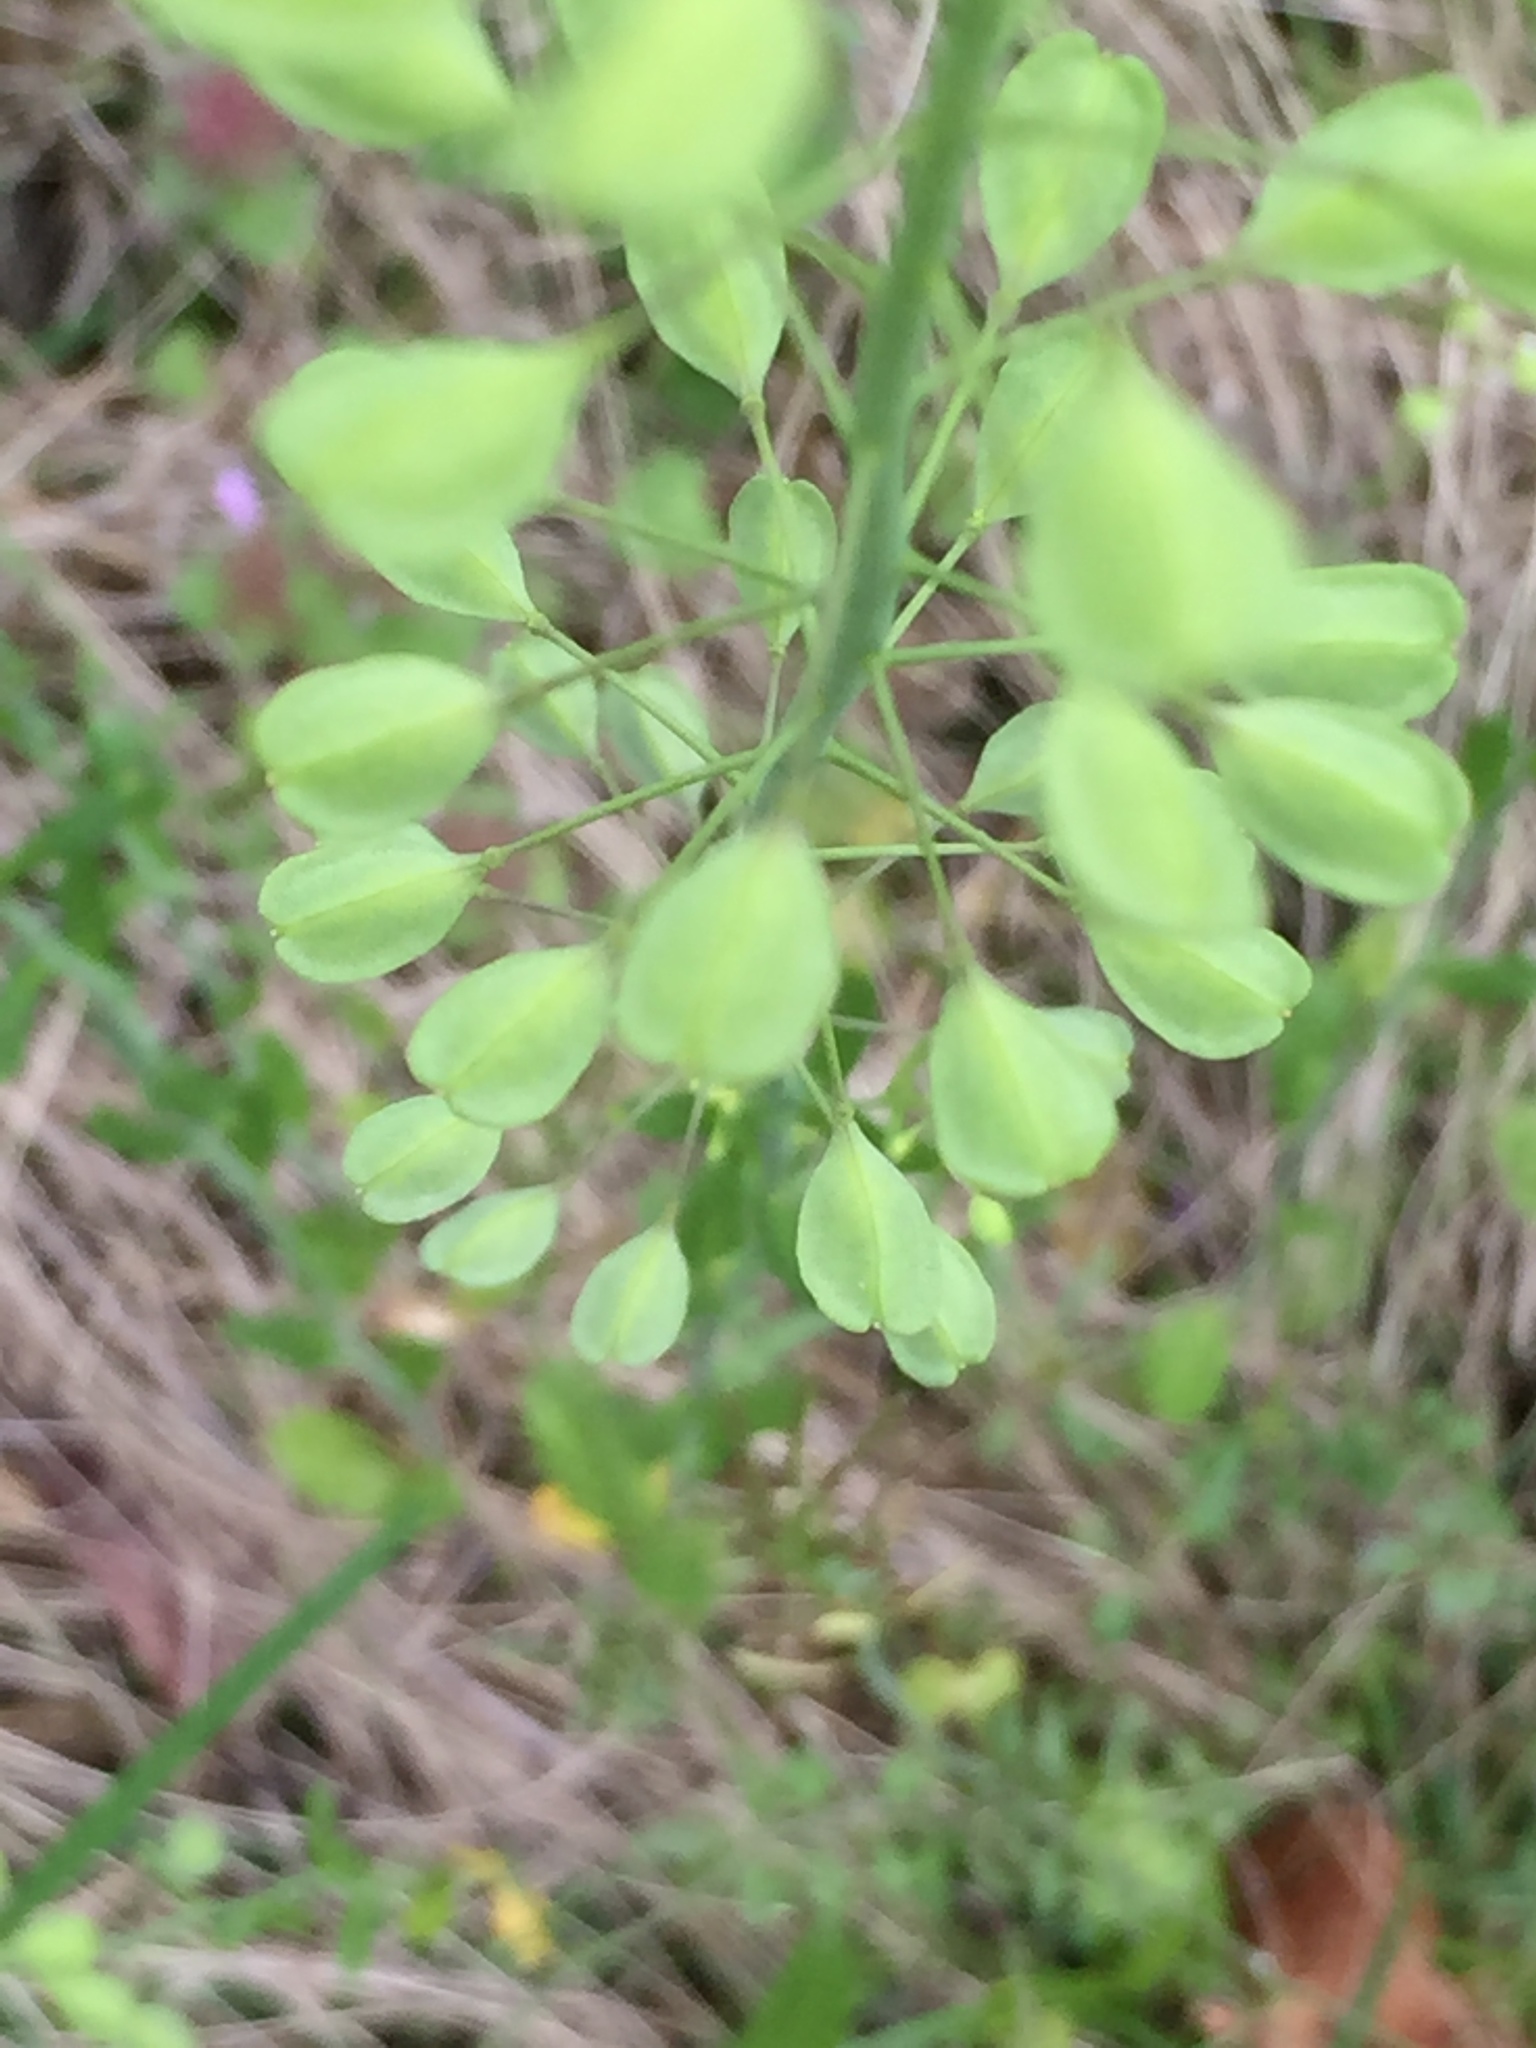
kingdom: Plantae
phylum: Tracheophyta
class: Magnoliopsida
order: Brassicales
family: Brassicaceae
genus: Thlaspi
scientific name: Thlaspi arvense
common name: Field pennycress
